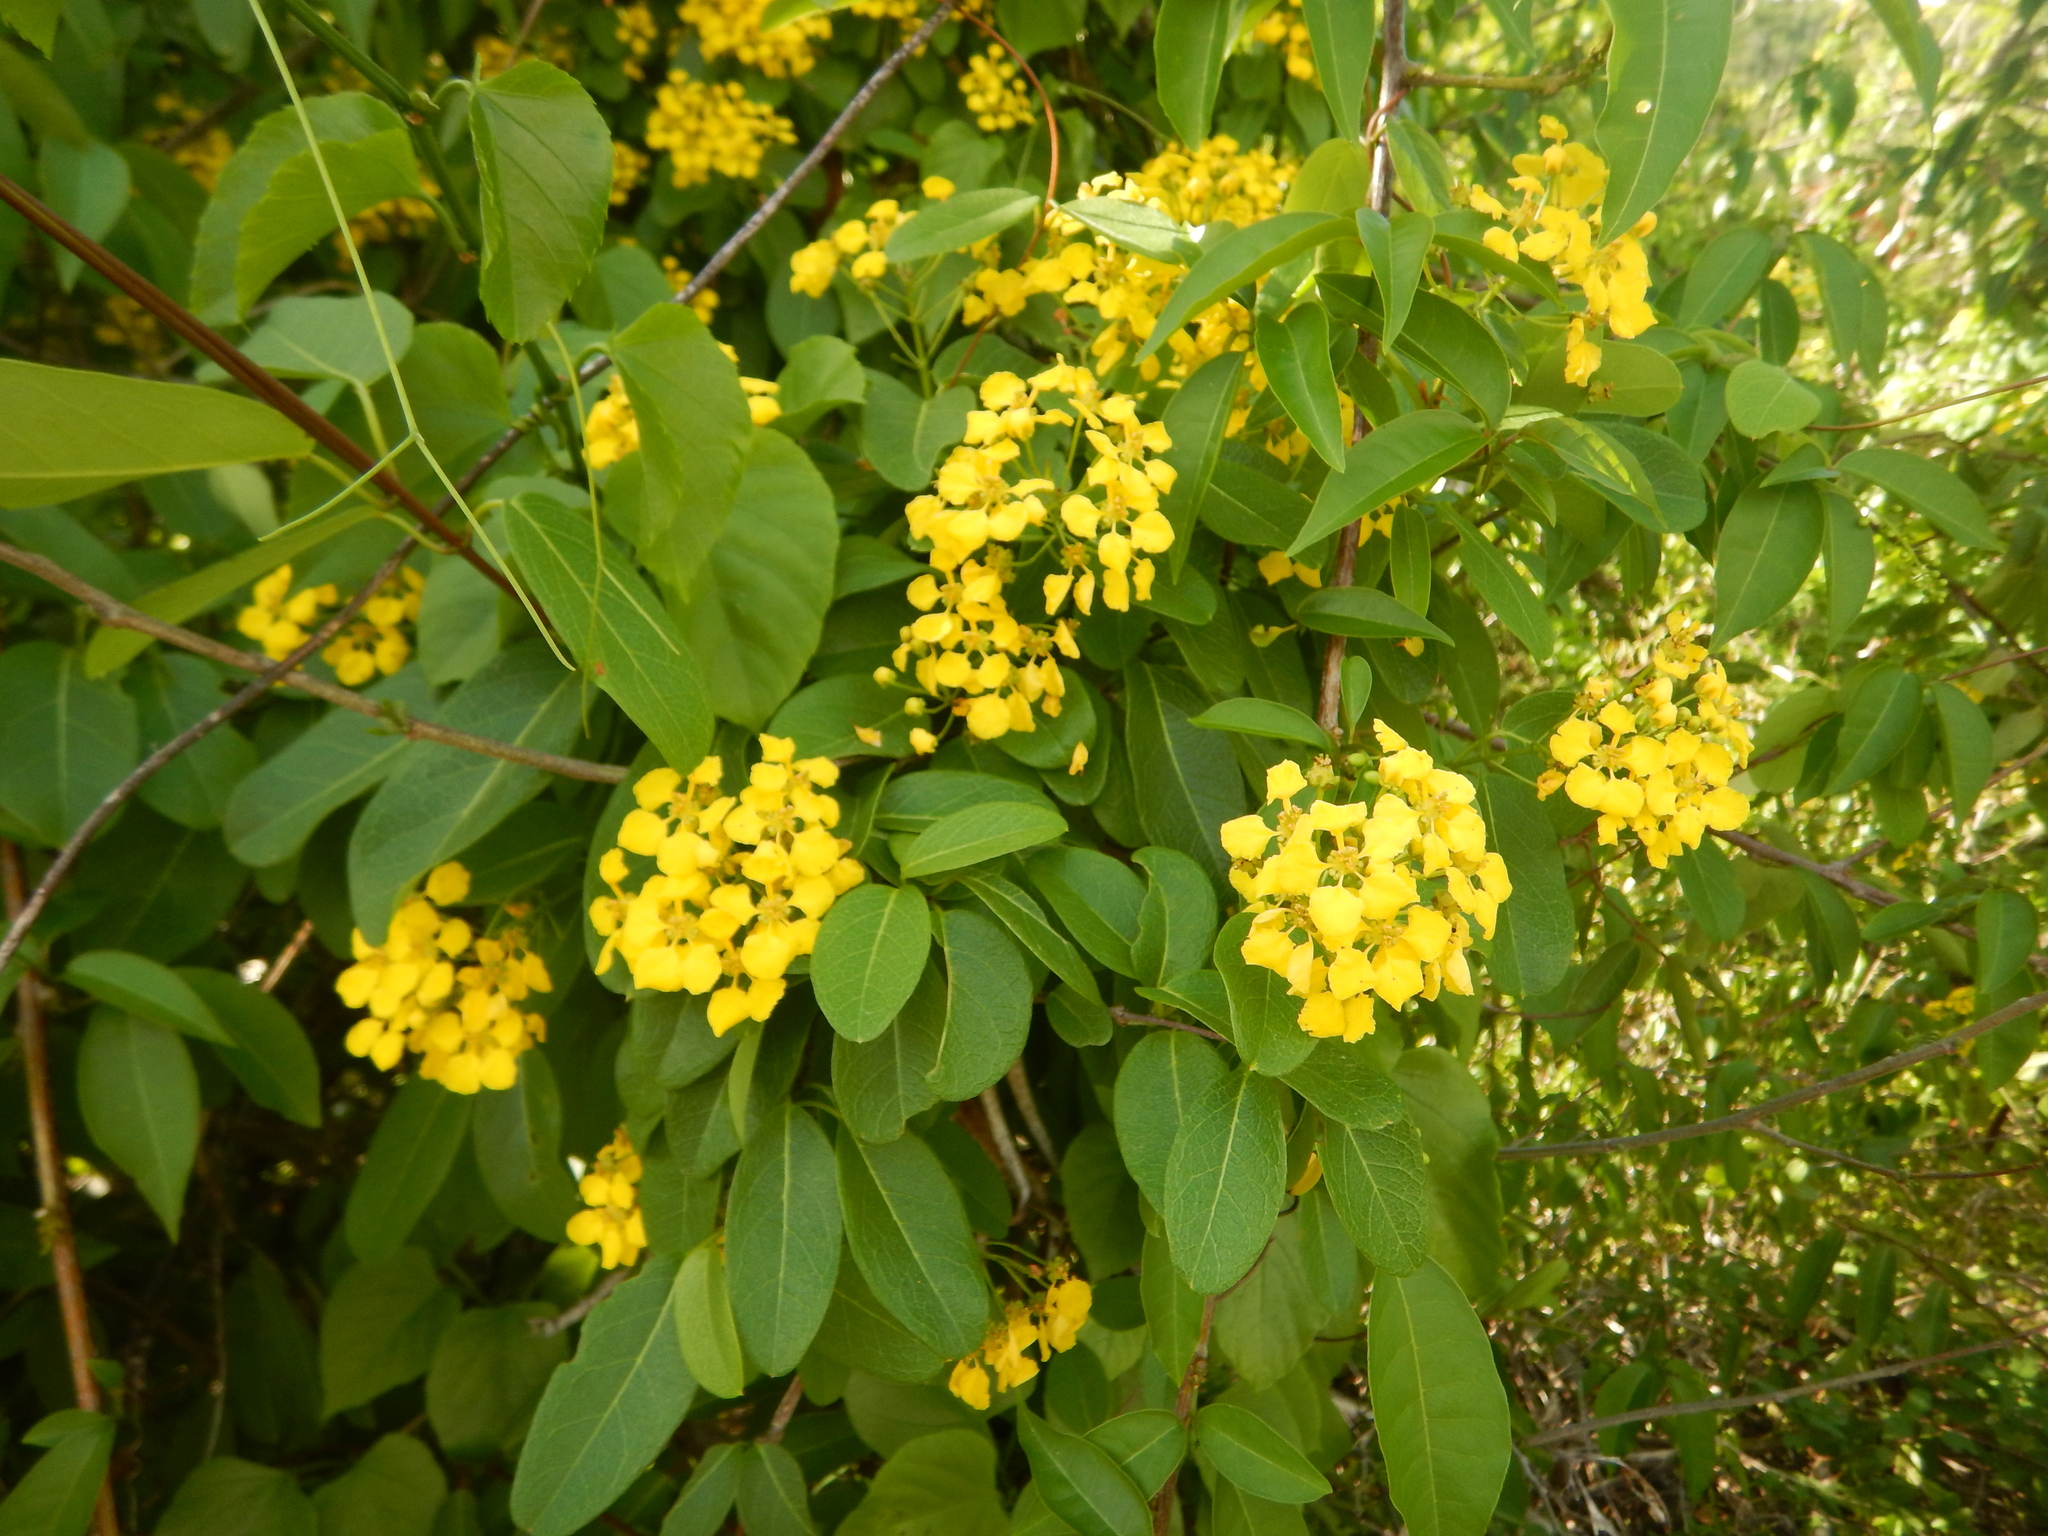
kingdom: Plantae
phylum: Tracheophyta
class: Magnoliopsida
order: Malpighiales
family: Malpighiaceae
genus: Stigmaphyllon
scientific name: Stigmaphyllon emarginatum
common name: Monarch amazonvine
